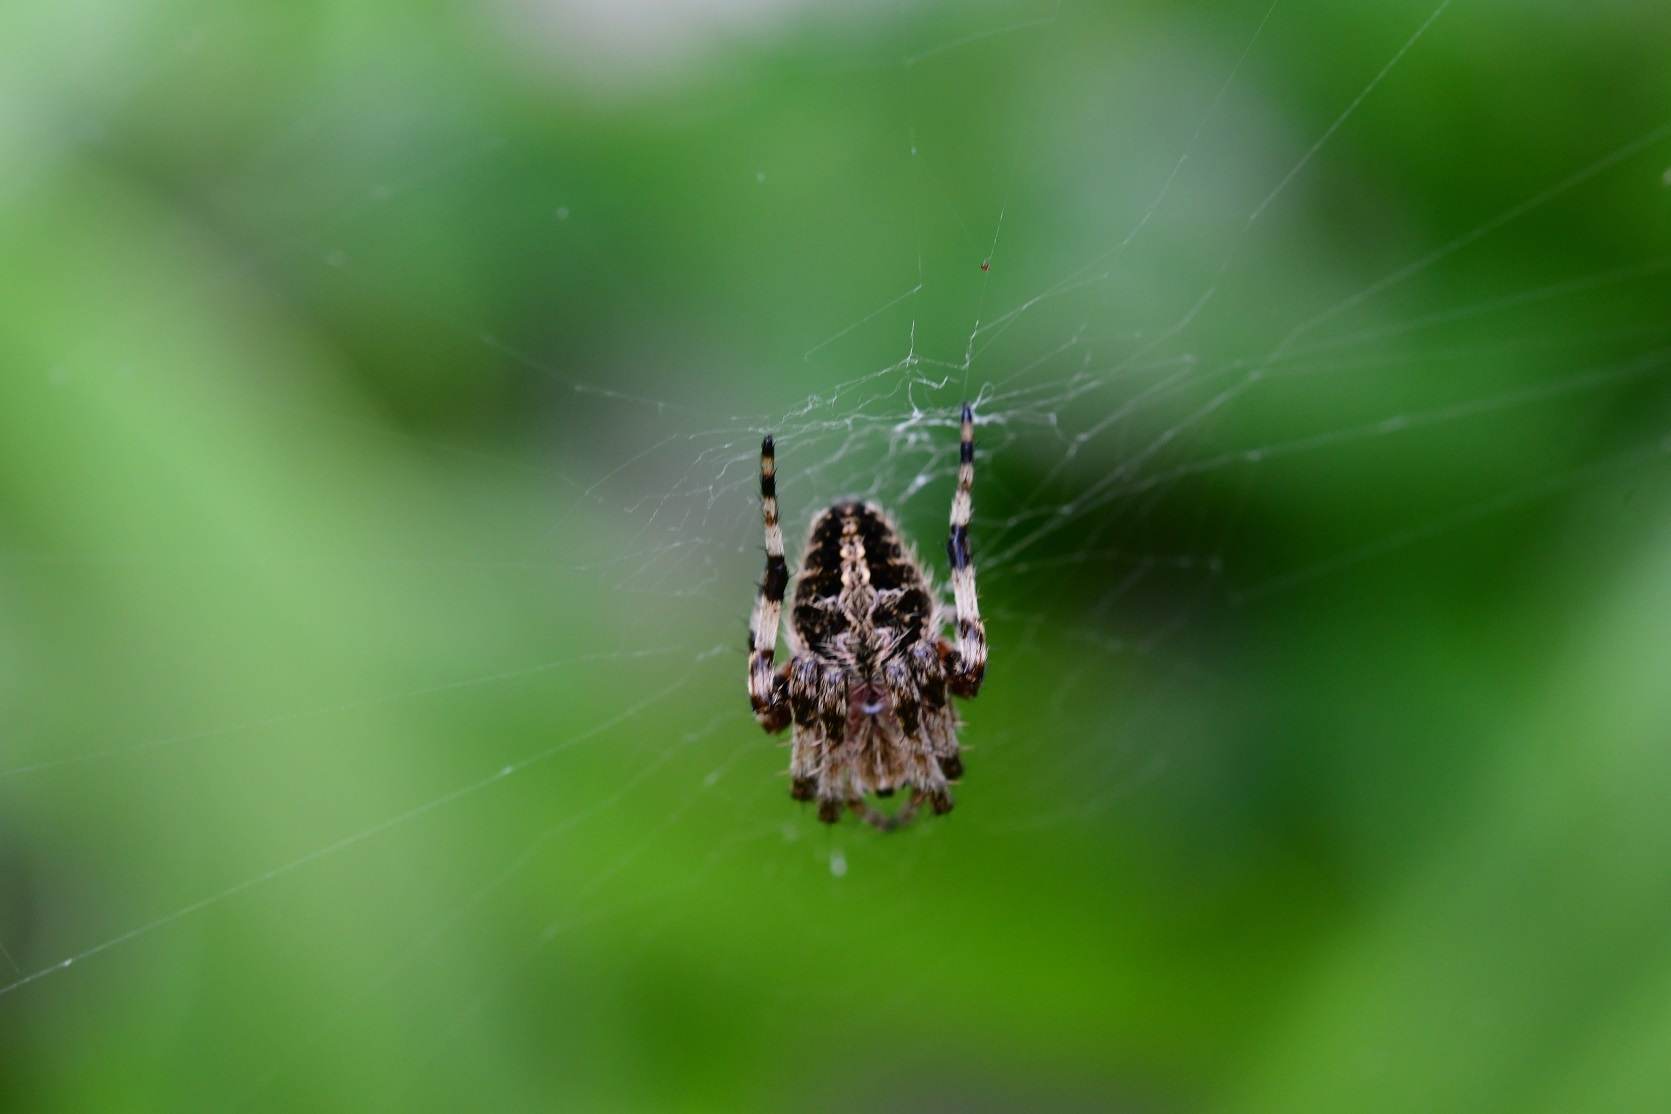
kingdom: Animalia
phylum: Arthropoda
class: Arachnida
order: Araneae
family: Araneidae
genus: Neoscona
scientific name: Neoscona orizabensis
